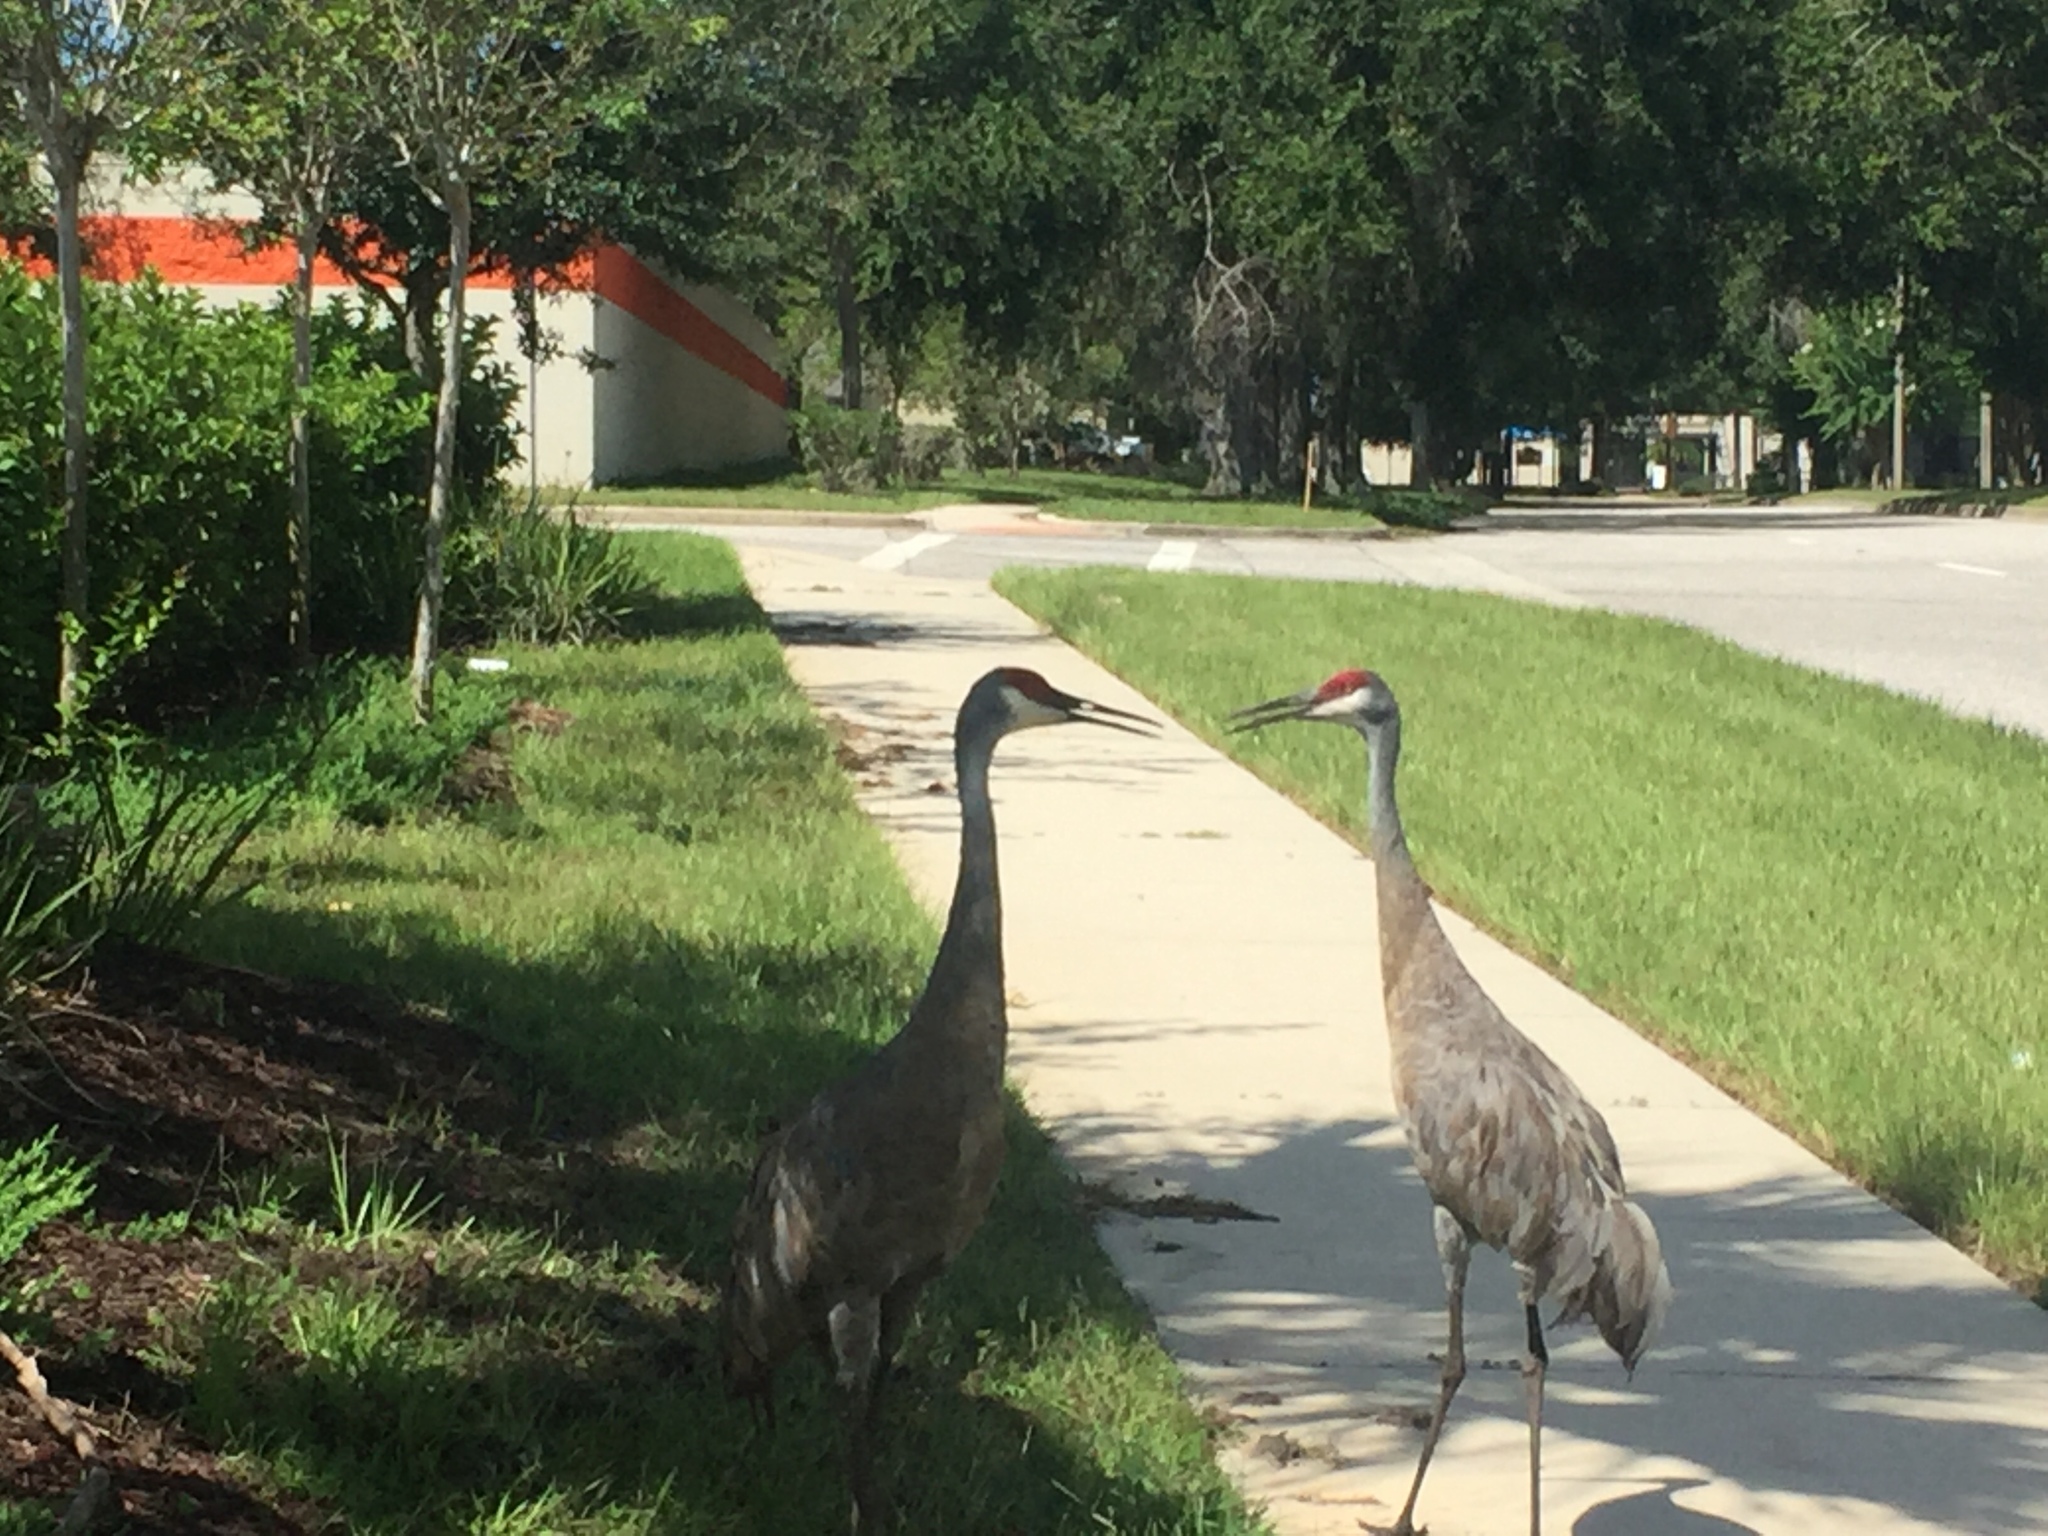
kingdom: Animalia
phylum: Chordata
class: Aves
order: Gruiformes
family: Gruidae
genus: Grus
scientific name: Grus canadensis
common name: Sandhill crane
